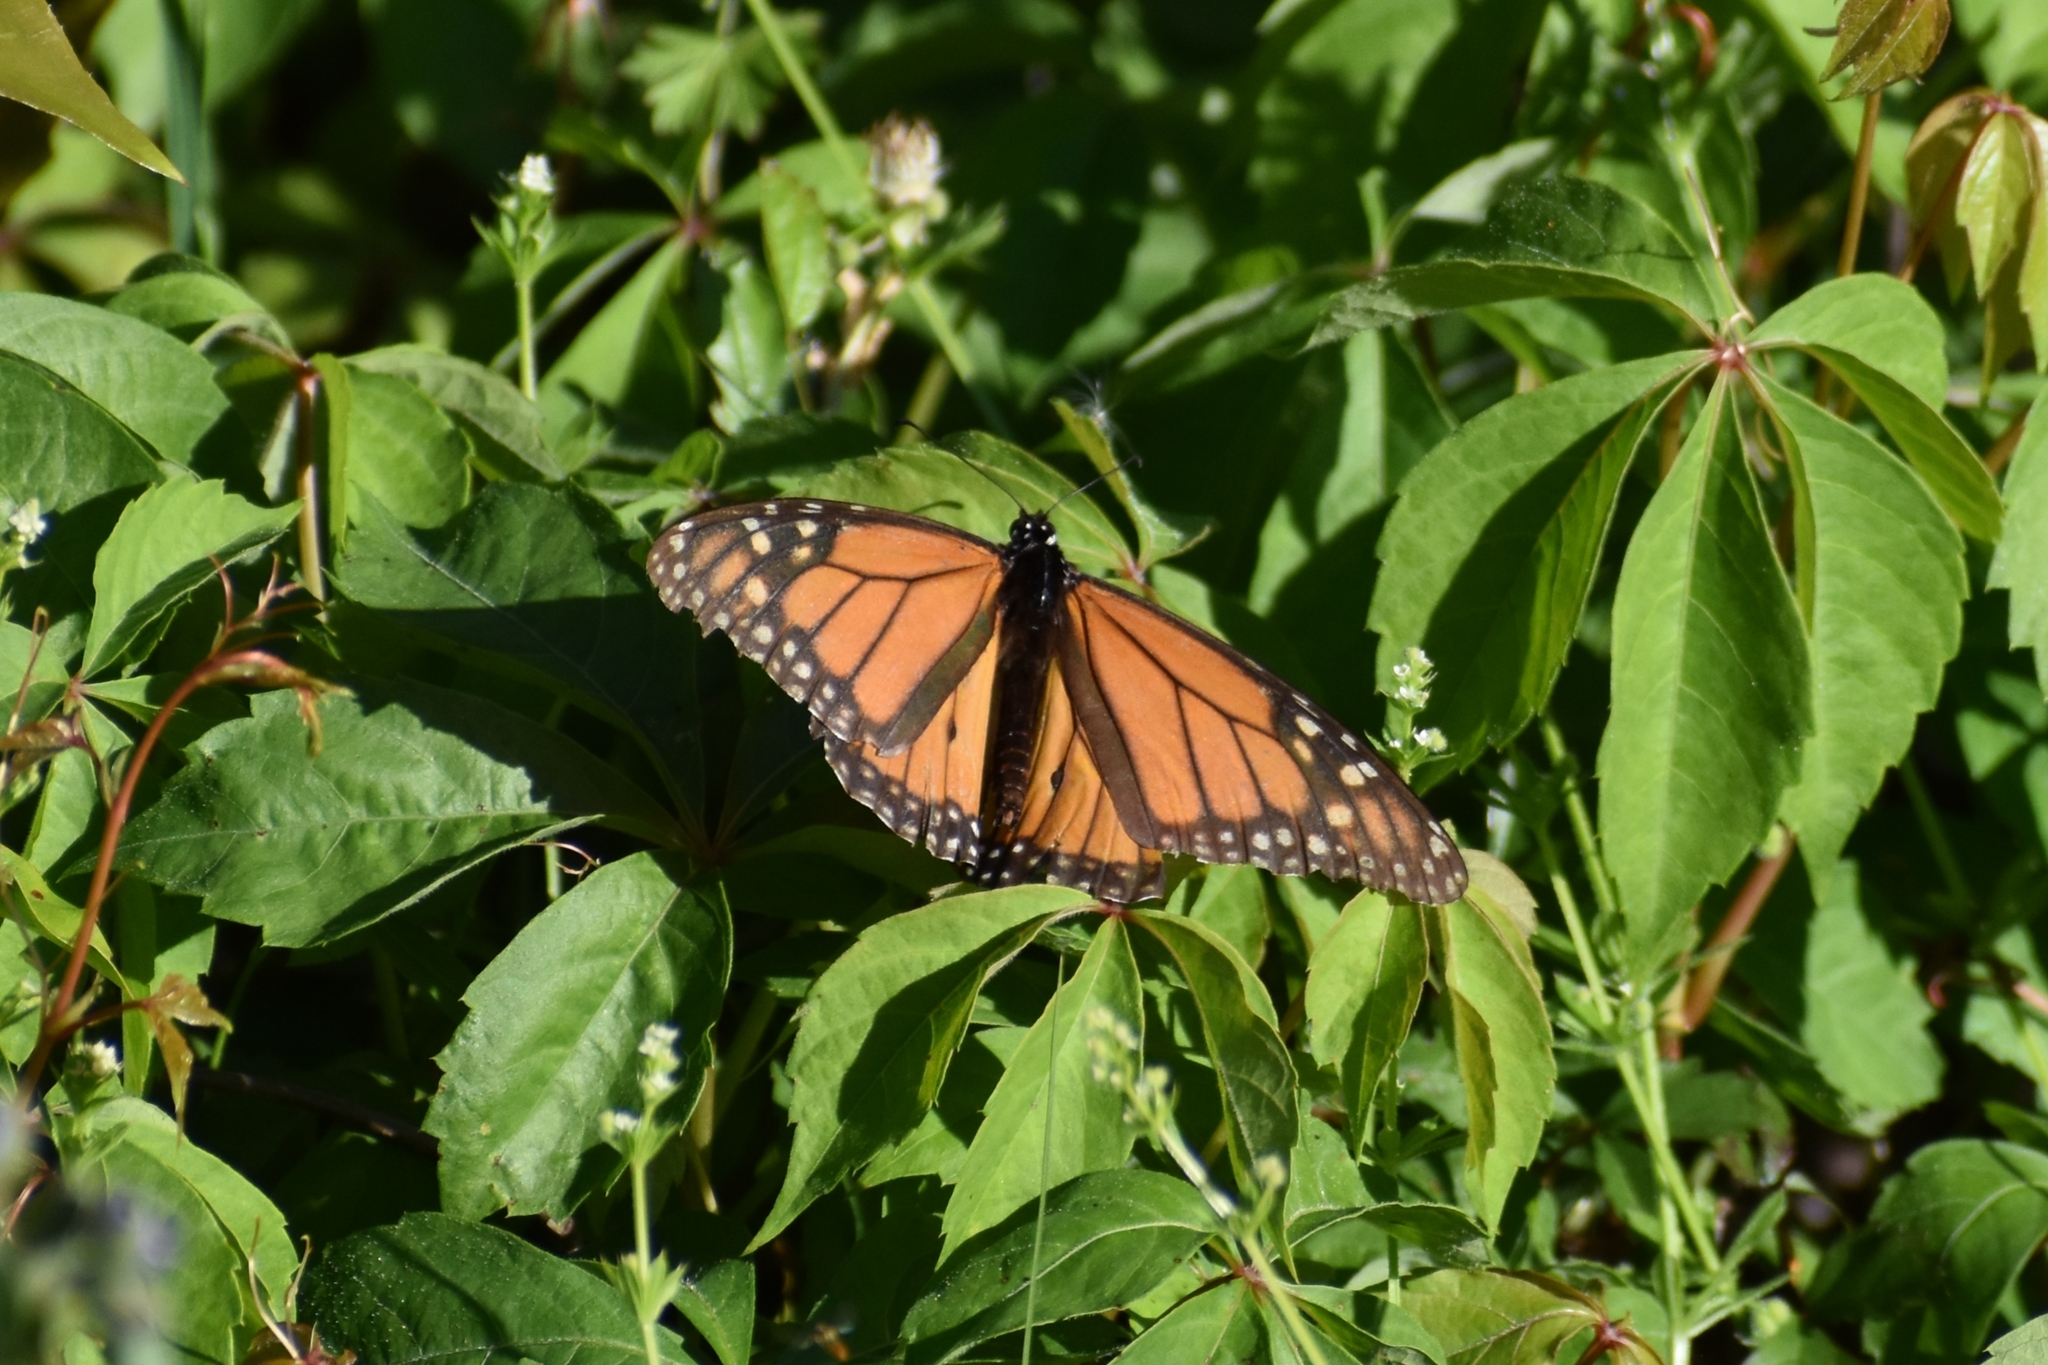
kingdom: Animalia
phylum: Arthropoda
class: Insecta
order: Lepidoptera
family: Nymphalidae
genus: Danaus
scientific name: Danaus plexippus
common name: Monarch
